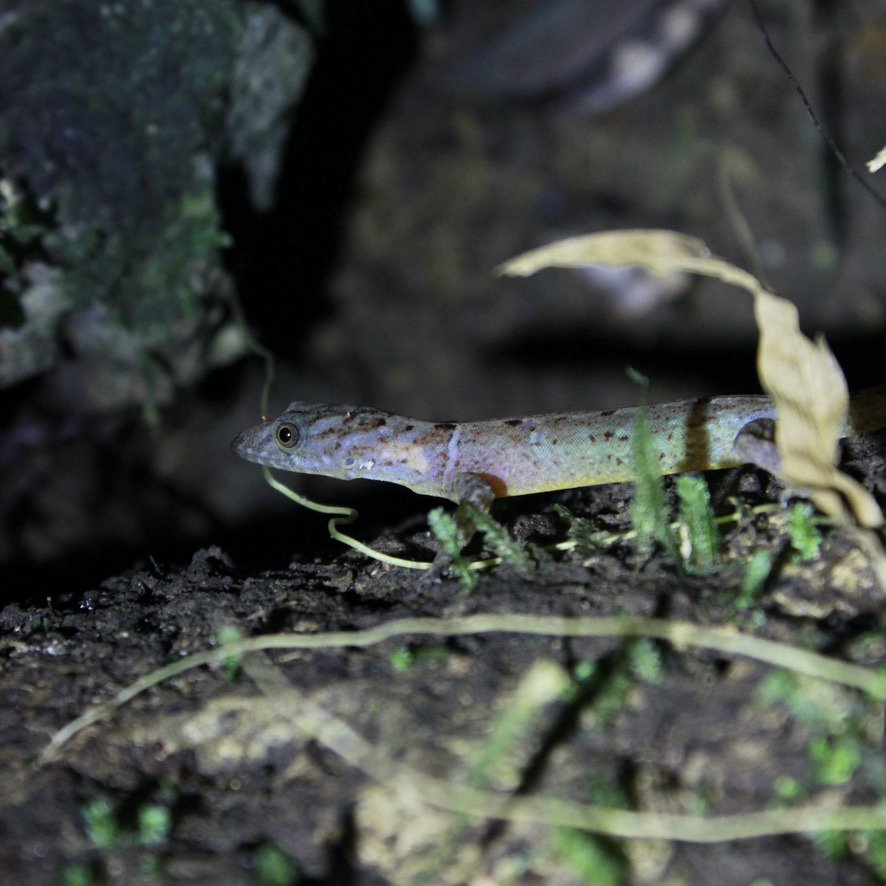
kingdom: Animalia
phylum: Chordata
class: Squamata
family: Sphaerodactylidae
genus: Gonatodes
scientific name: Gonatodes ceciliae
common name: Brilliant south american gecko
